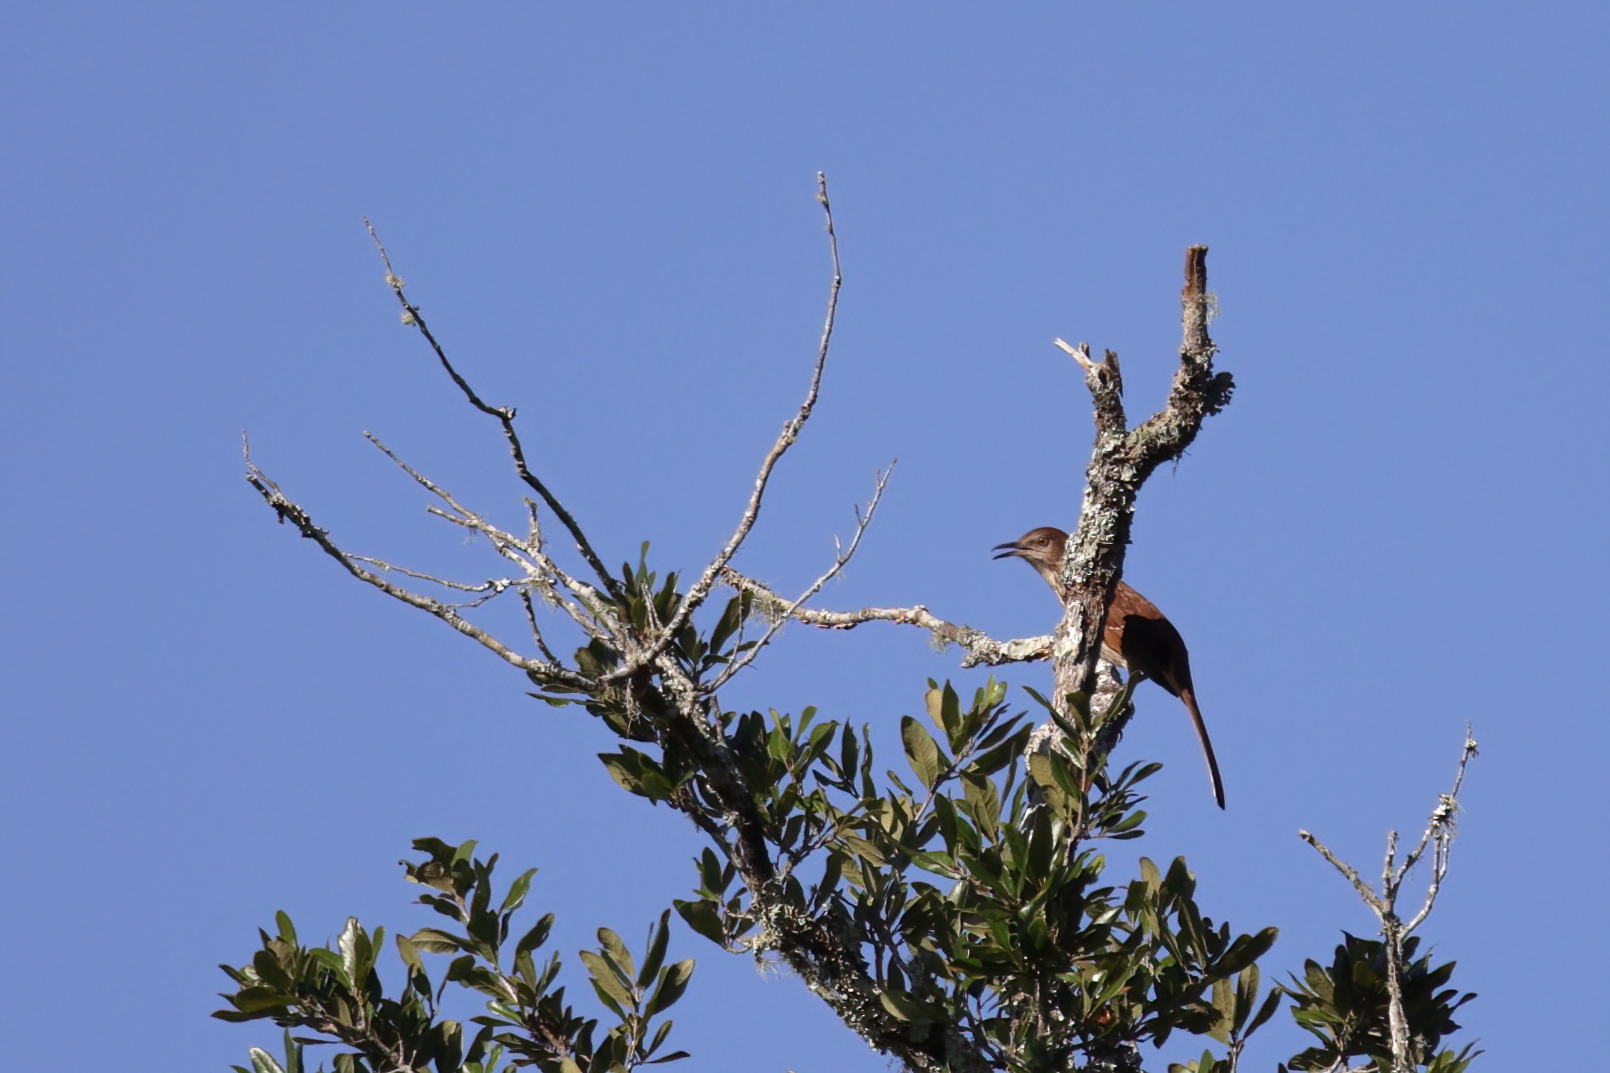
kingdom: Animalia
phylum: Chordata
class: Aves
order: Passeriformes
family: Mimidae
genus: Toxostoma
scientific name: Toxostoma rufum
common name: Brown thrasher
